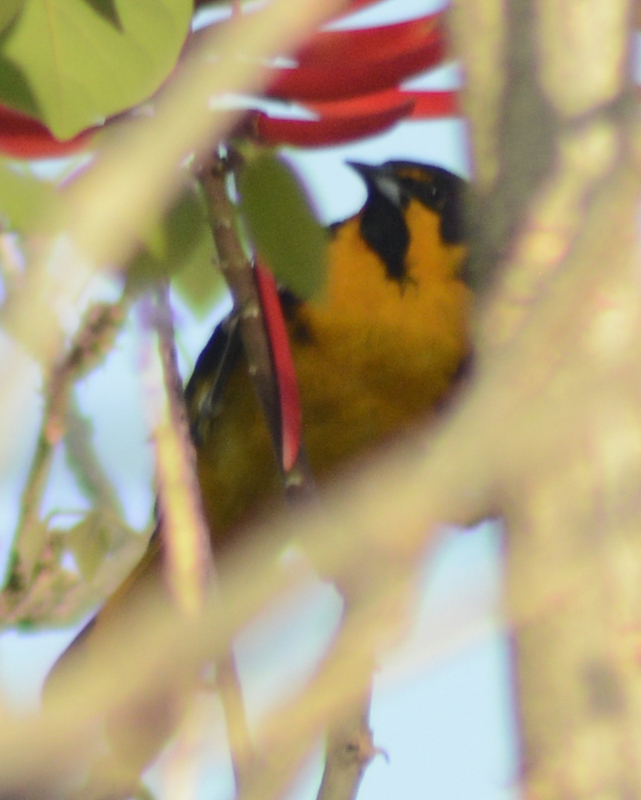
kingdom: Animalia
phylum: Chordata
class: Aves
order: Passeriformes
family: Icteridae
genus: Icterus
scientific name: Icterus abeillei
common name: Black-backed oriole
